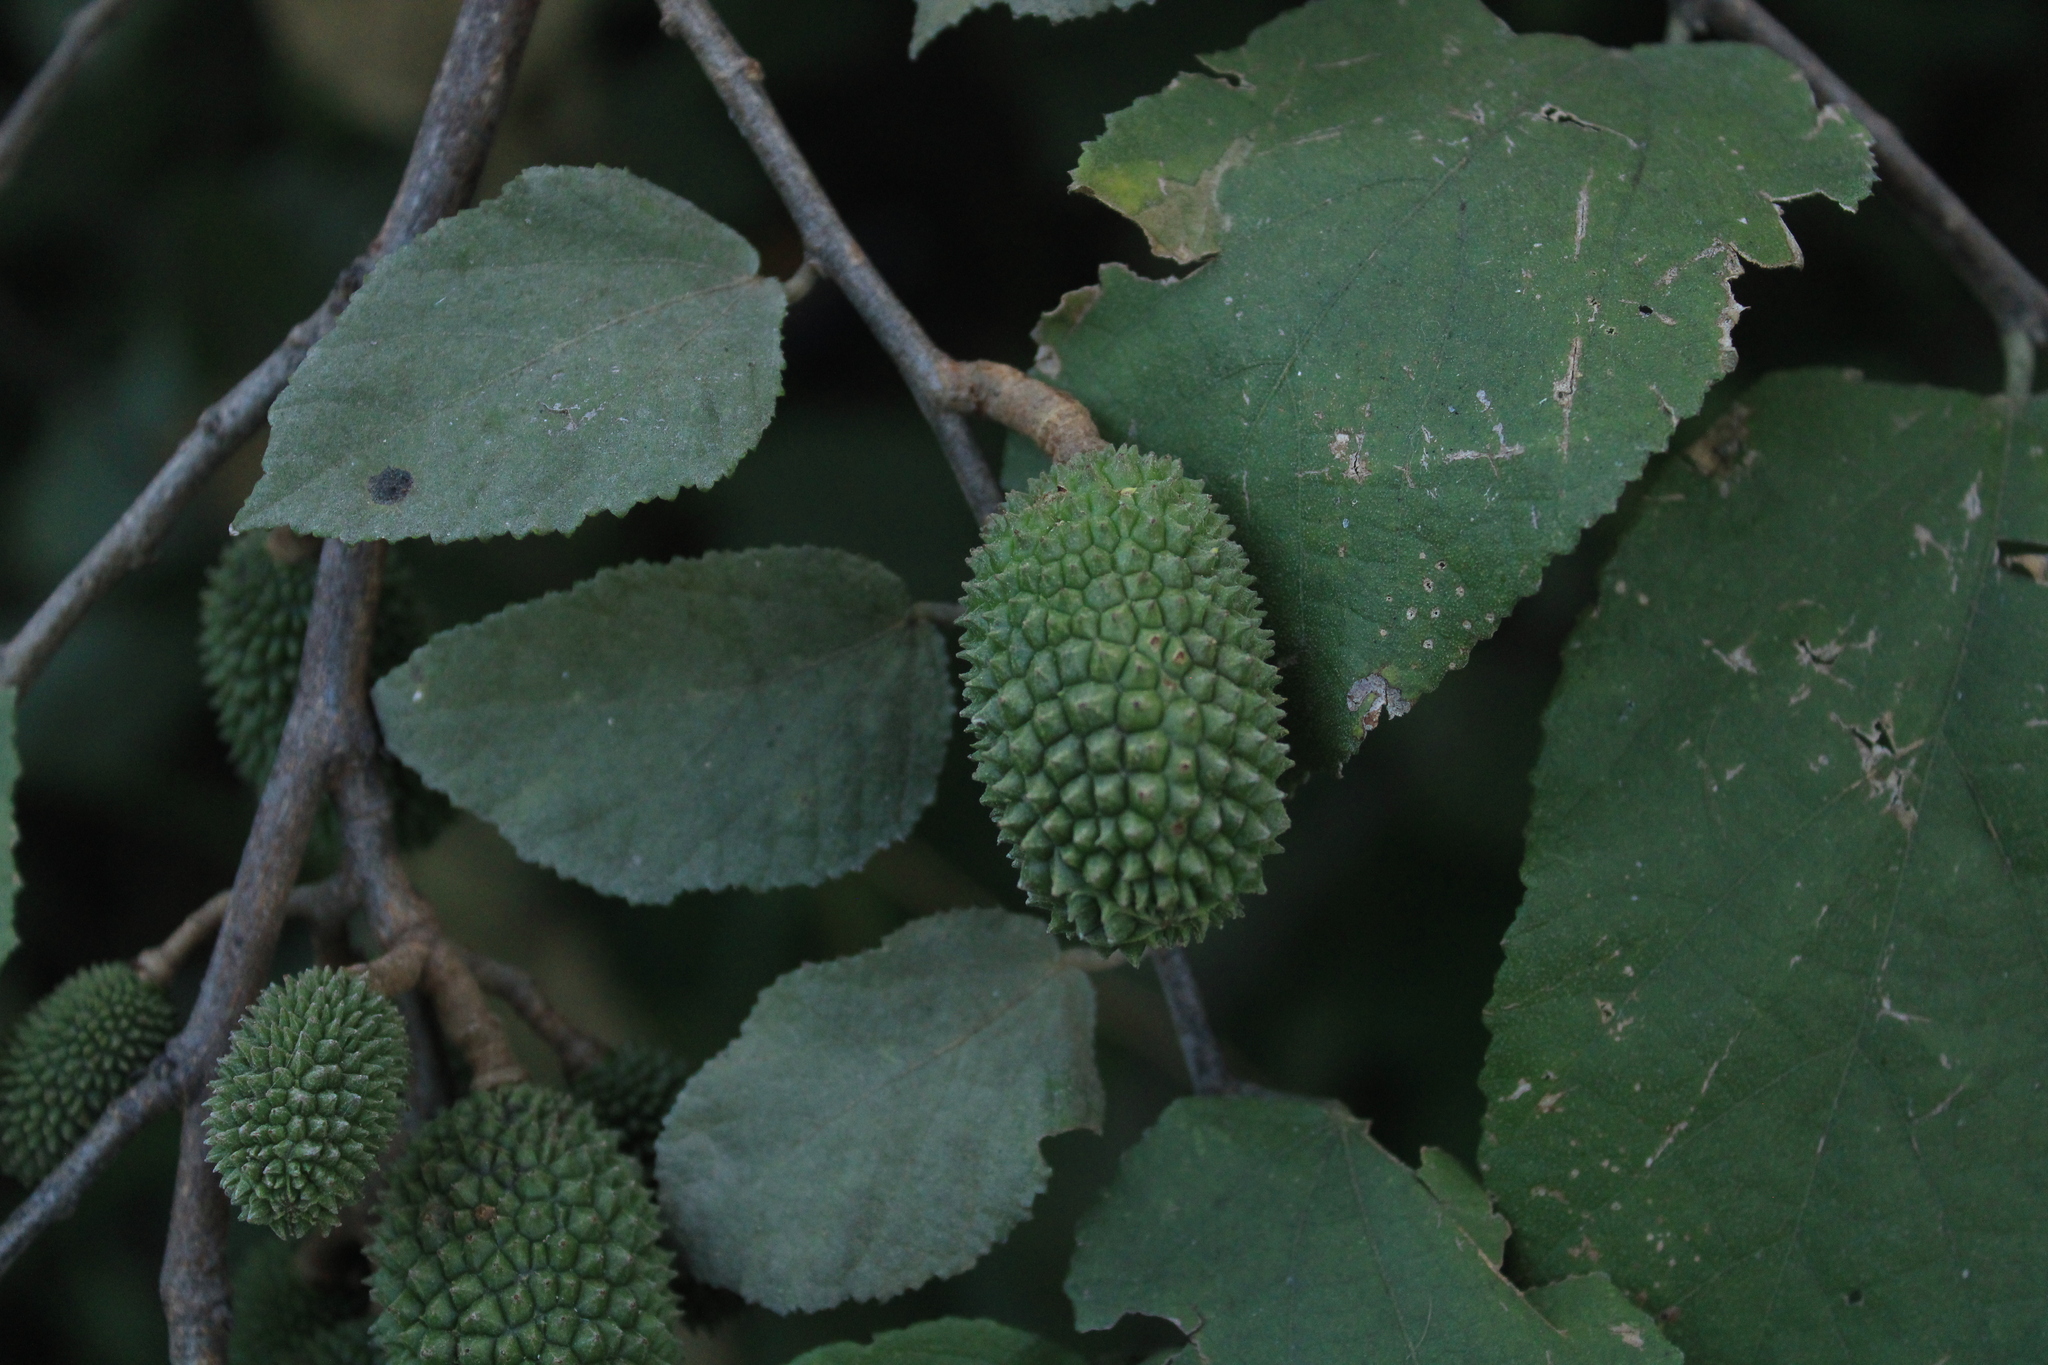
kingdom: Plantae
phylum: Tracheophyta
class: Magnoliopsida
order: Malvales
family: Malvaceae
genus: Guazuma
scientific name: Guazuma ulmifolia
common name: Bastard-cedar
